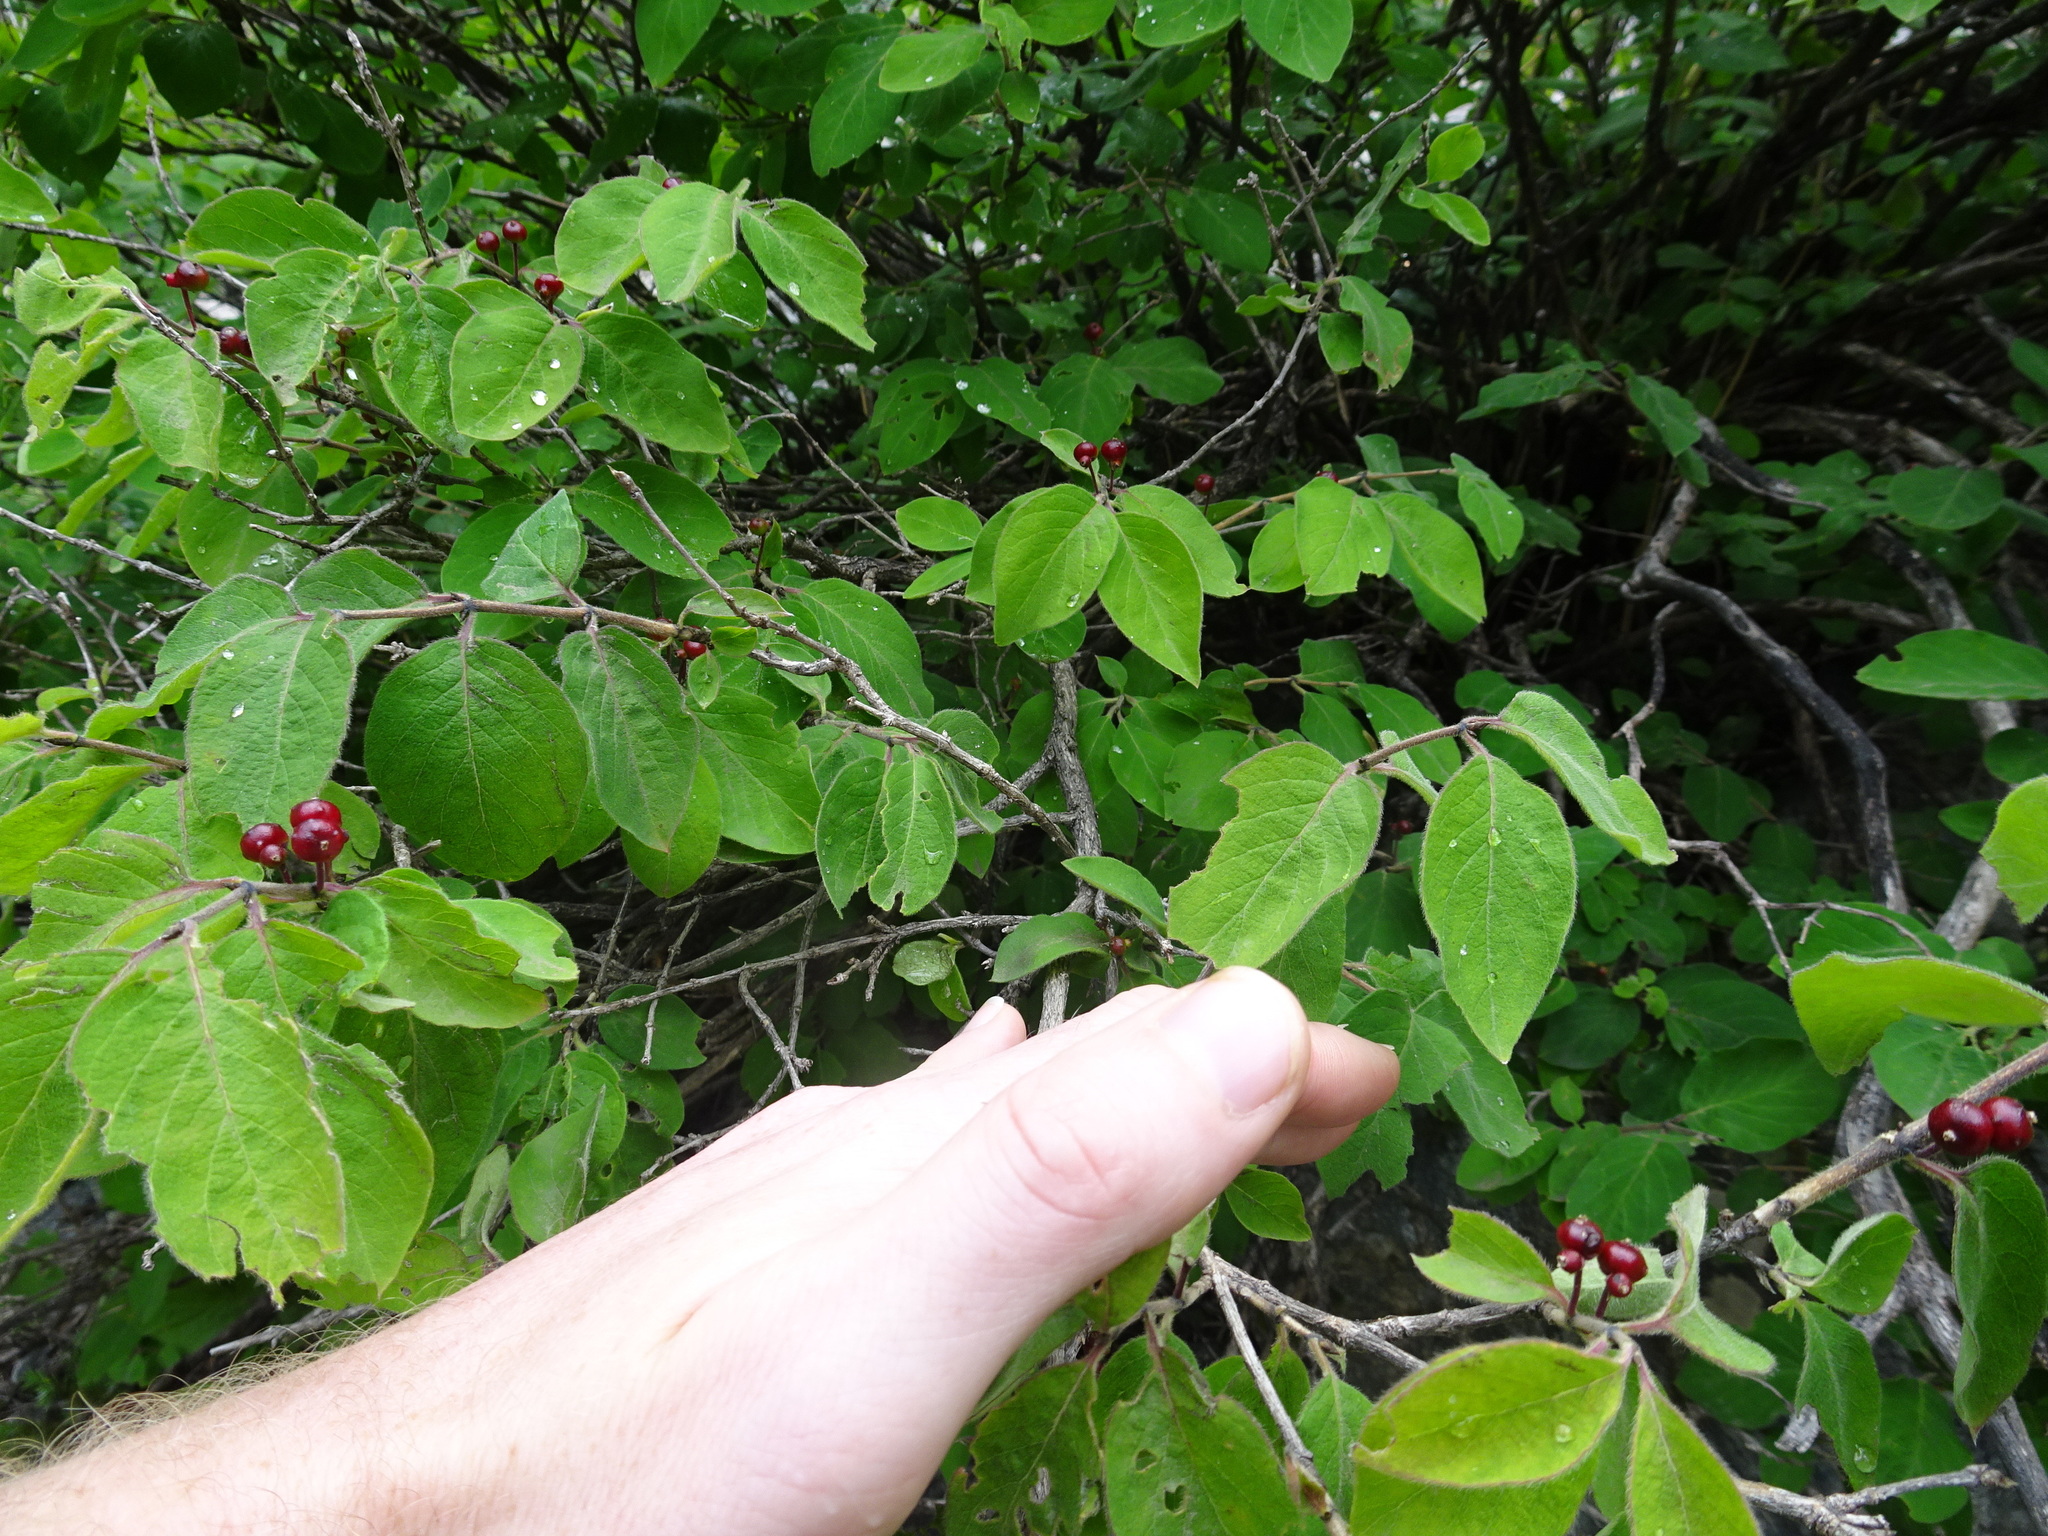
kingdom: Plantae
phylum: Tracheophyta
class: Magnoliopsida
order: Dipsacales
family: Caprifoliaceae
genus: Lonicera
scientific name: Lonicera xylosteum
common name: Fly honeysuckle
